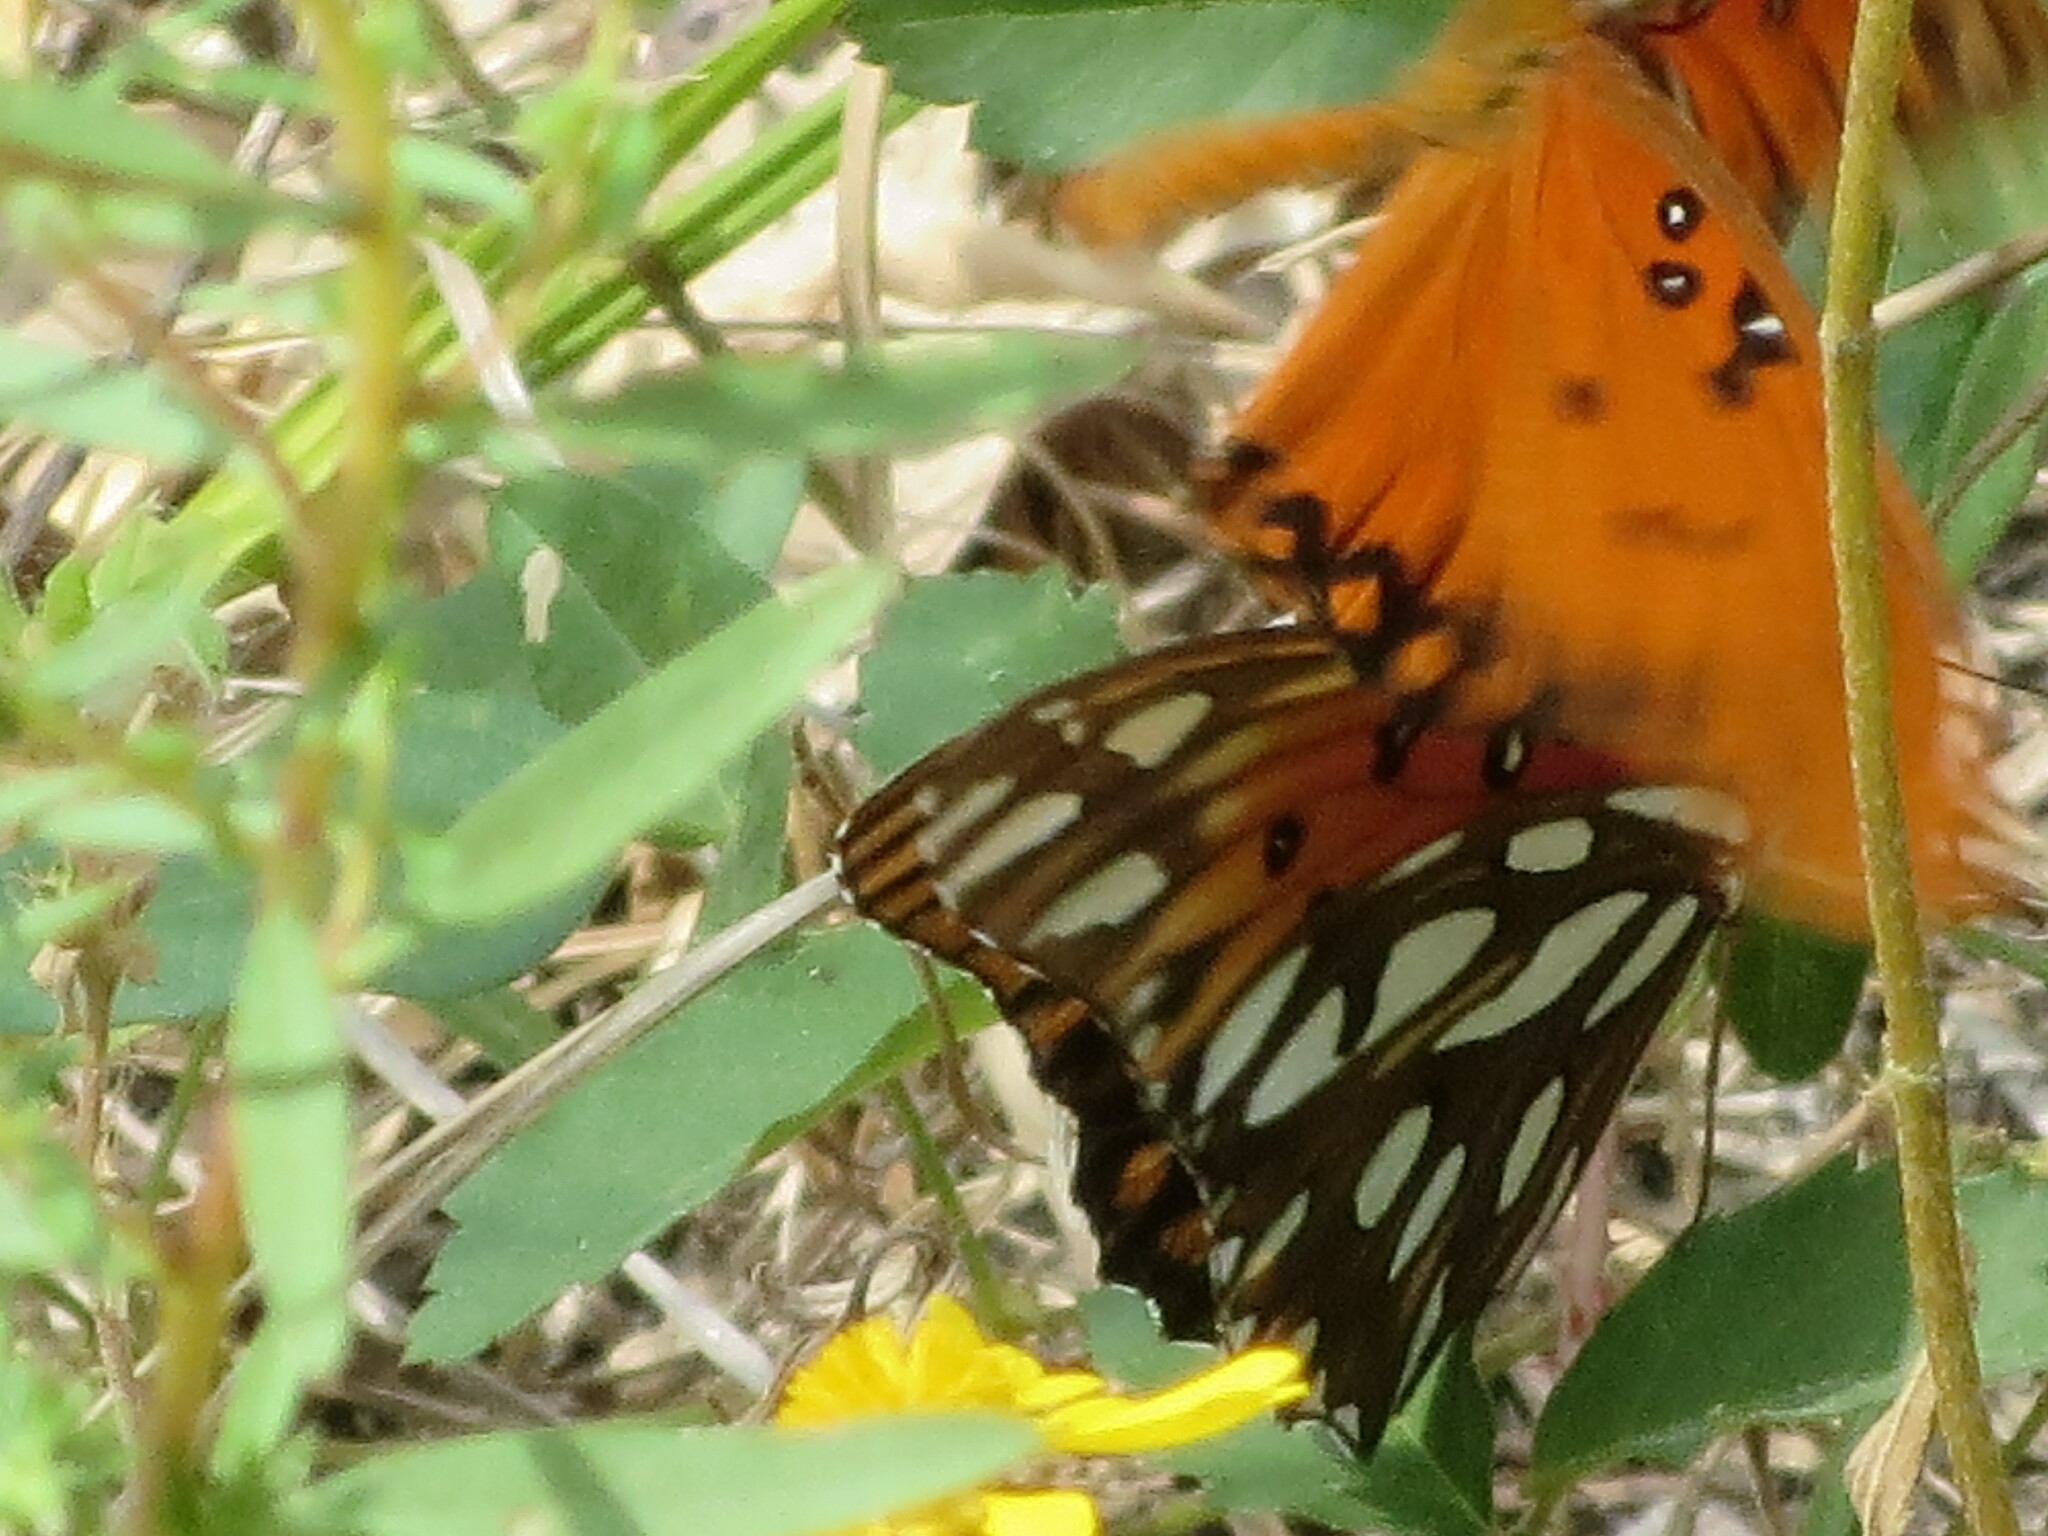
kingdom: Animalia
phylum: Arthropoda
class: Insecta
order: Lepidoptera
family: Nymphalidae
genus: Dione
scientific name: Dione vanillae
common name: Gulf fritillary
